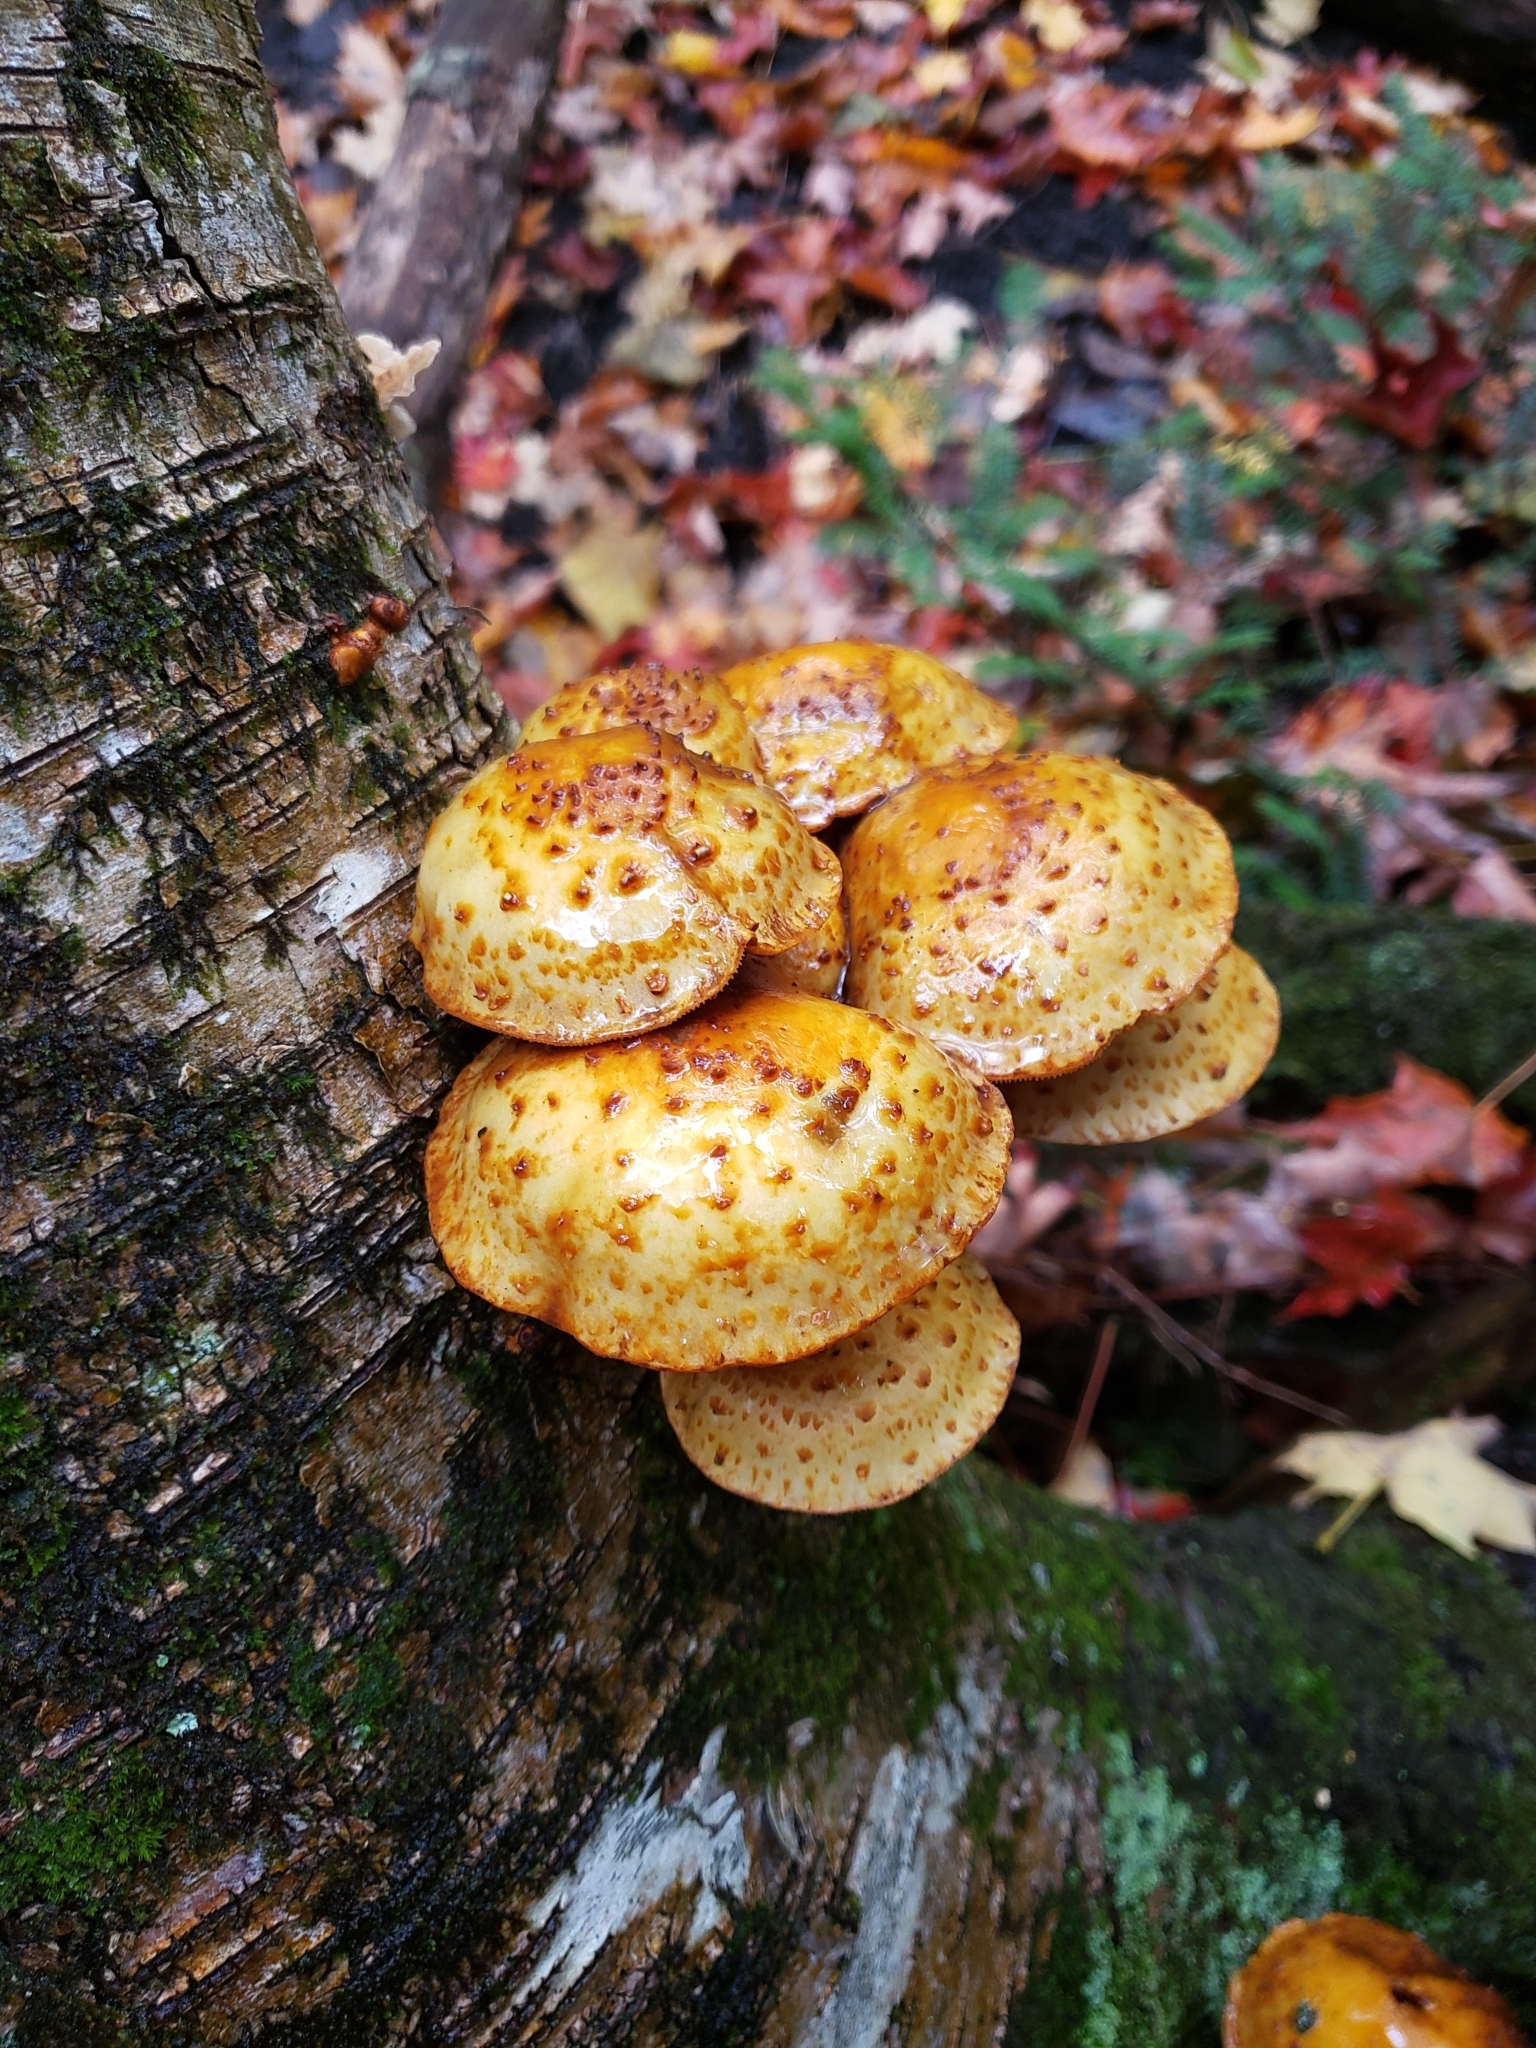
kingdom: Fungi
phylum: Basidiomycota
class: Agaricomycetes
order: Agaricales
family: Strophariaceae
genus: Pholiota
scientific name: Pholiota aurivella
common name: Golden scalycap
